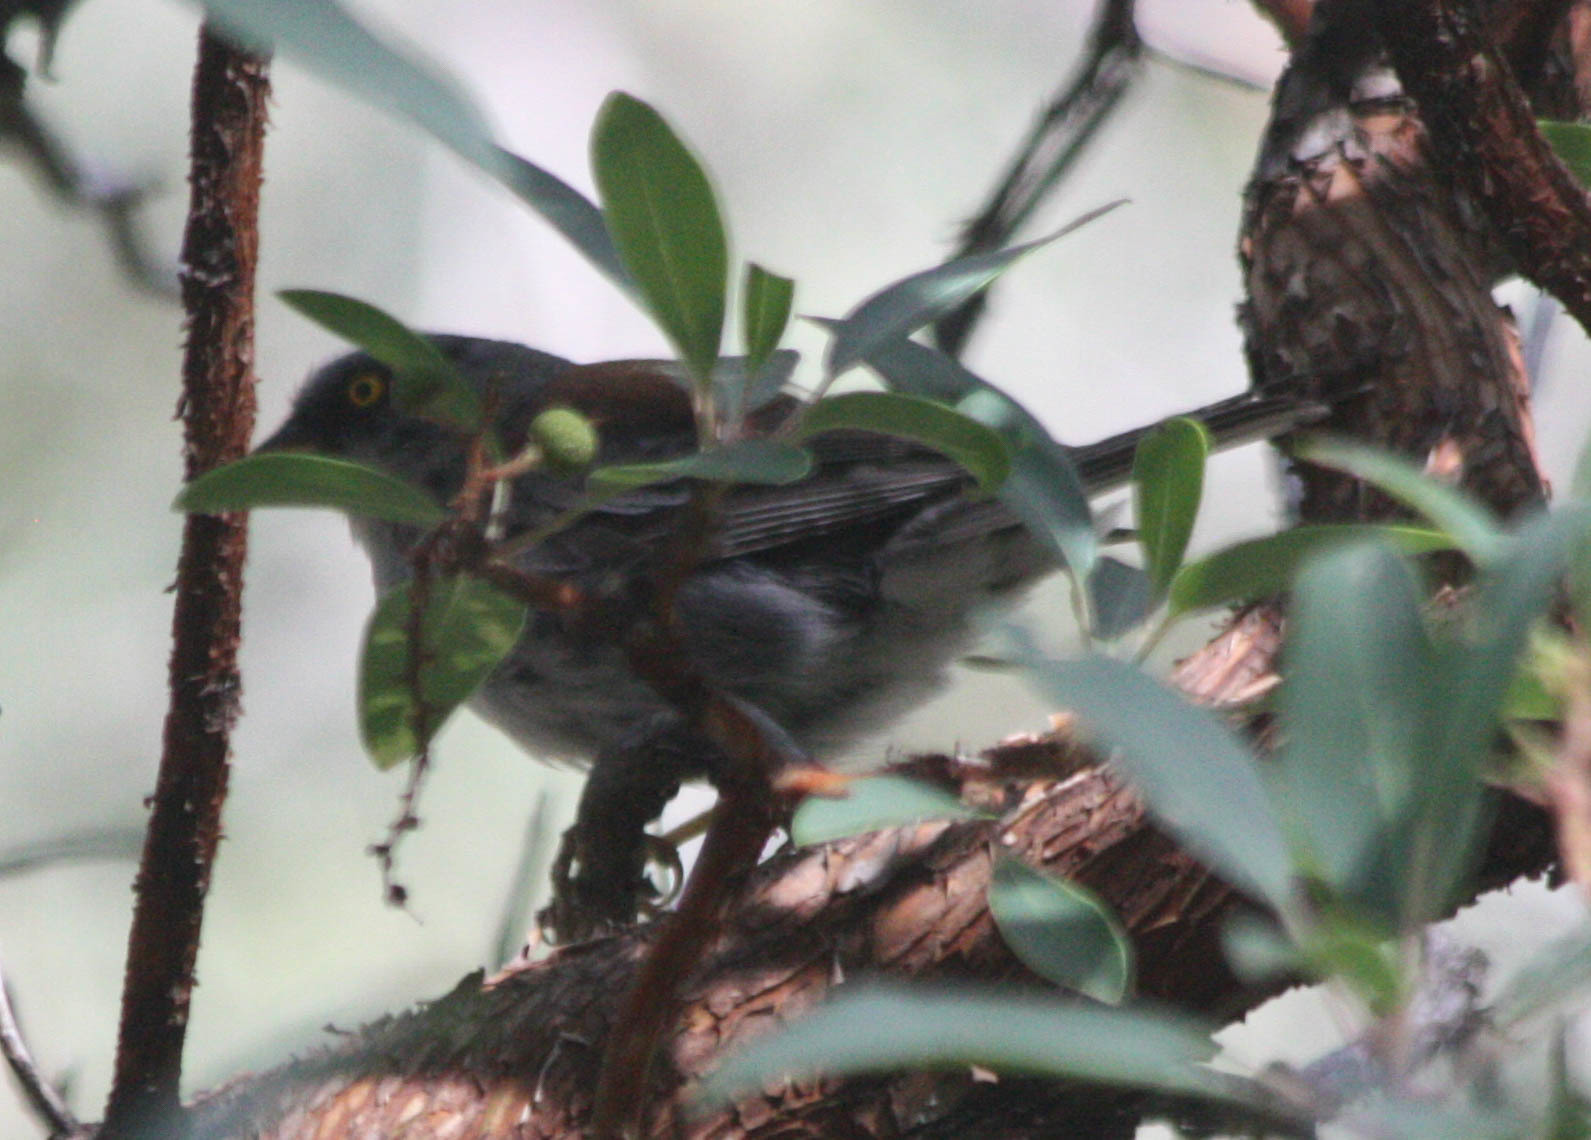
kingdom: Animalia
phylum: Chordata
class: Aves
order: Passeriformes
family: Passerellidae
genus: Junco
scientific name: Junco phaeonotus
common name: Yellow-eyed junco
